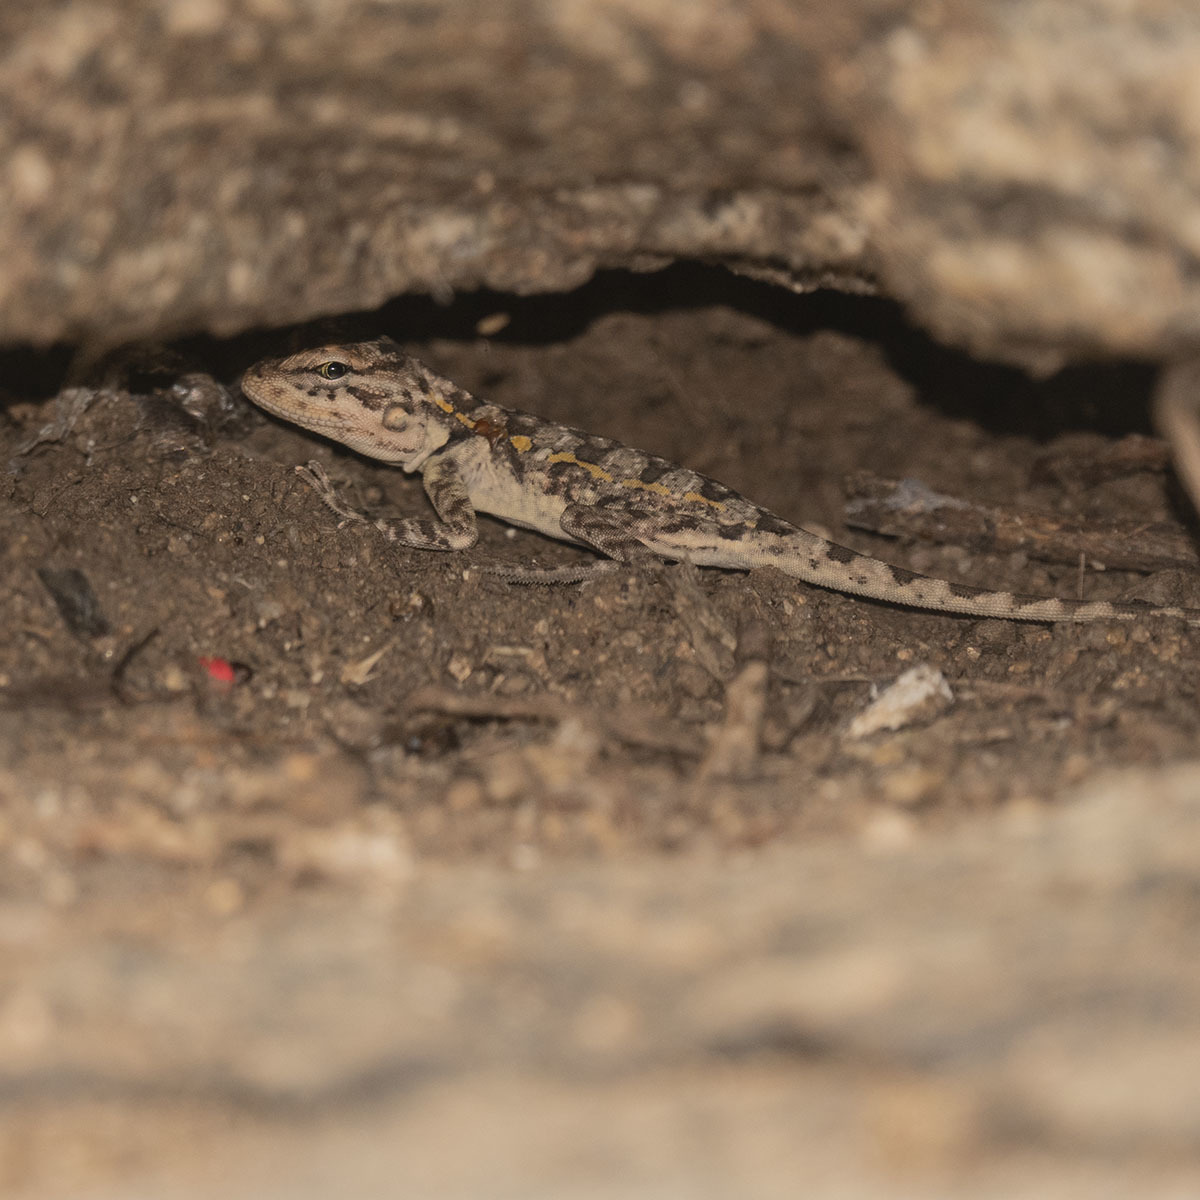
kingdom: Animalia
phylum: Chordata
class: Squamata
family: Agamidae
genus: Psammophilus
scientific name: Psammophilus dorsalis
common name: South indian rock agama
